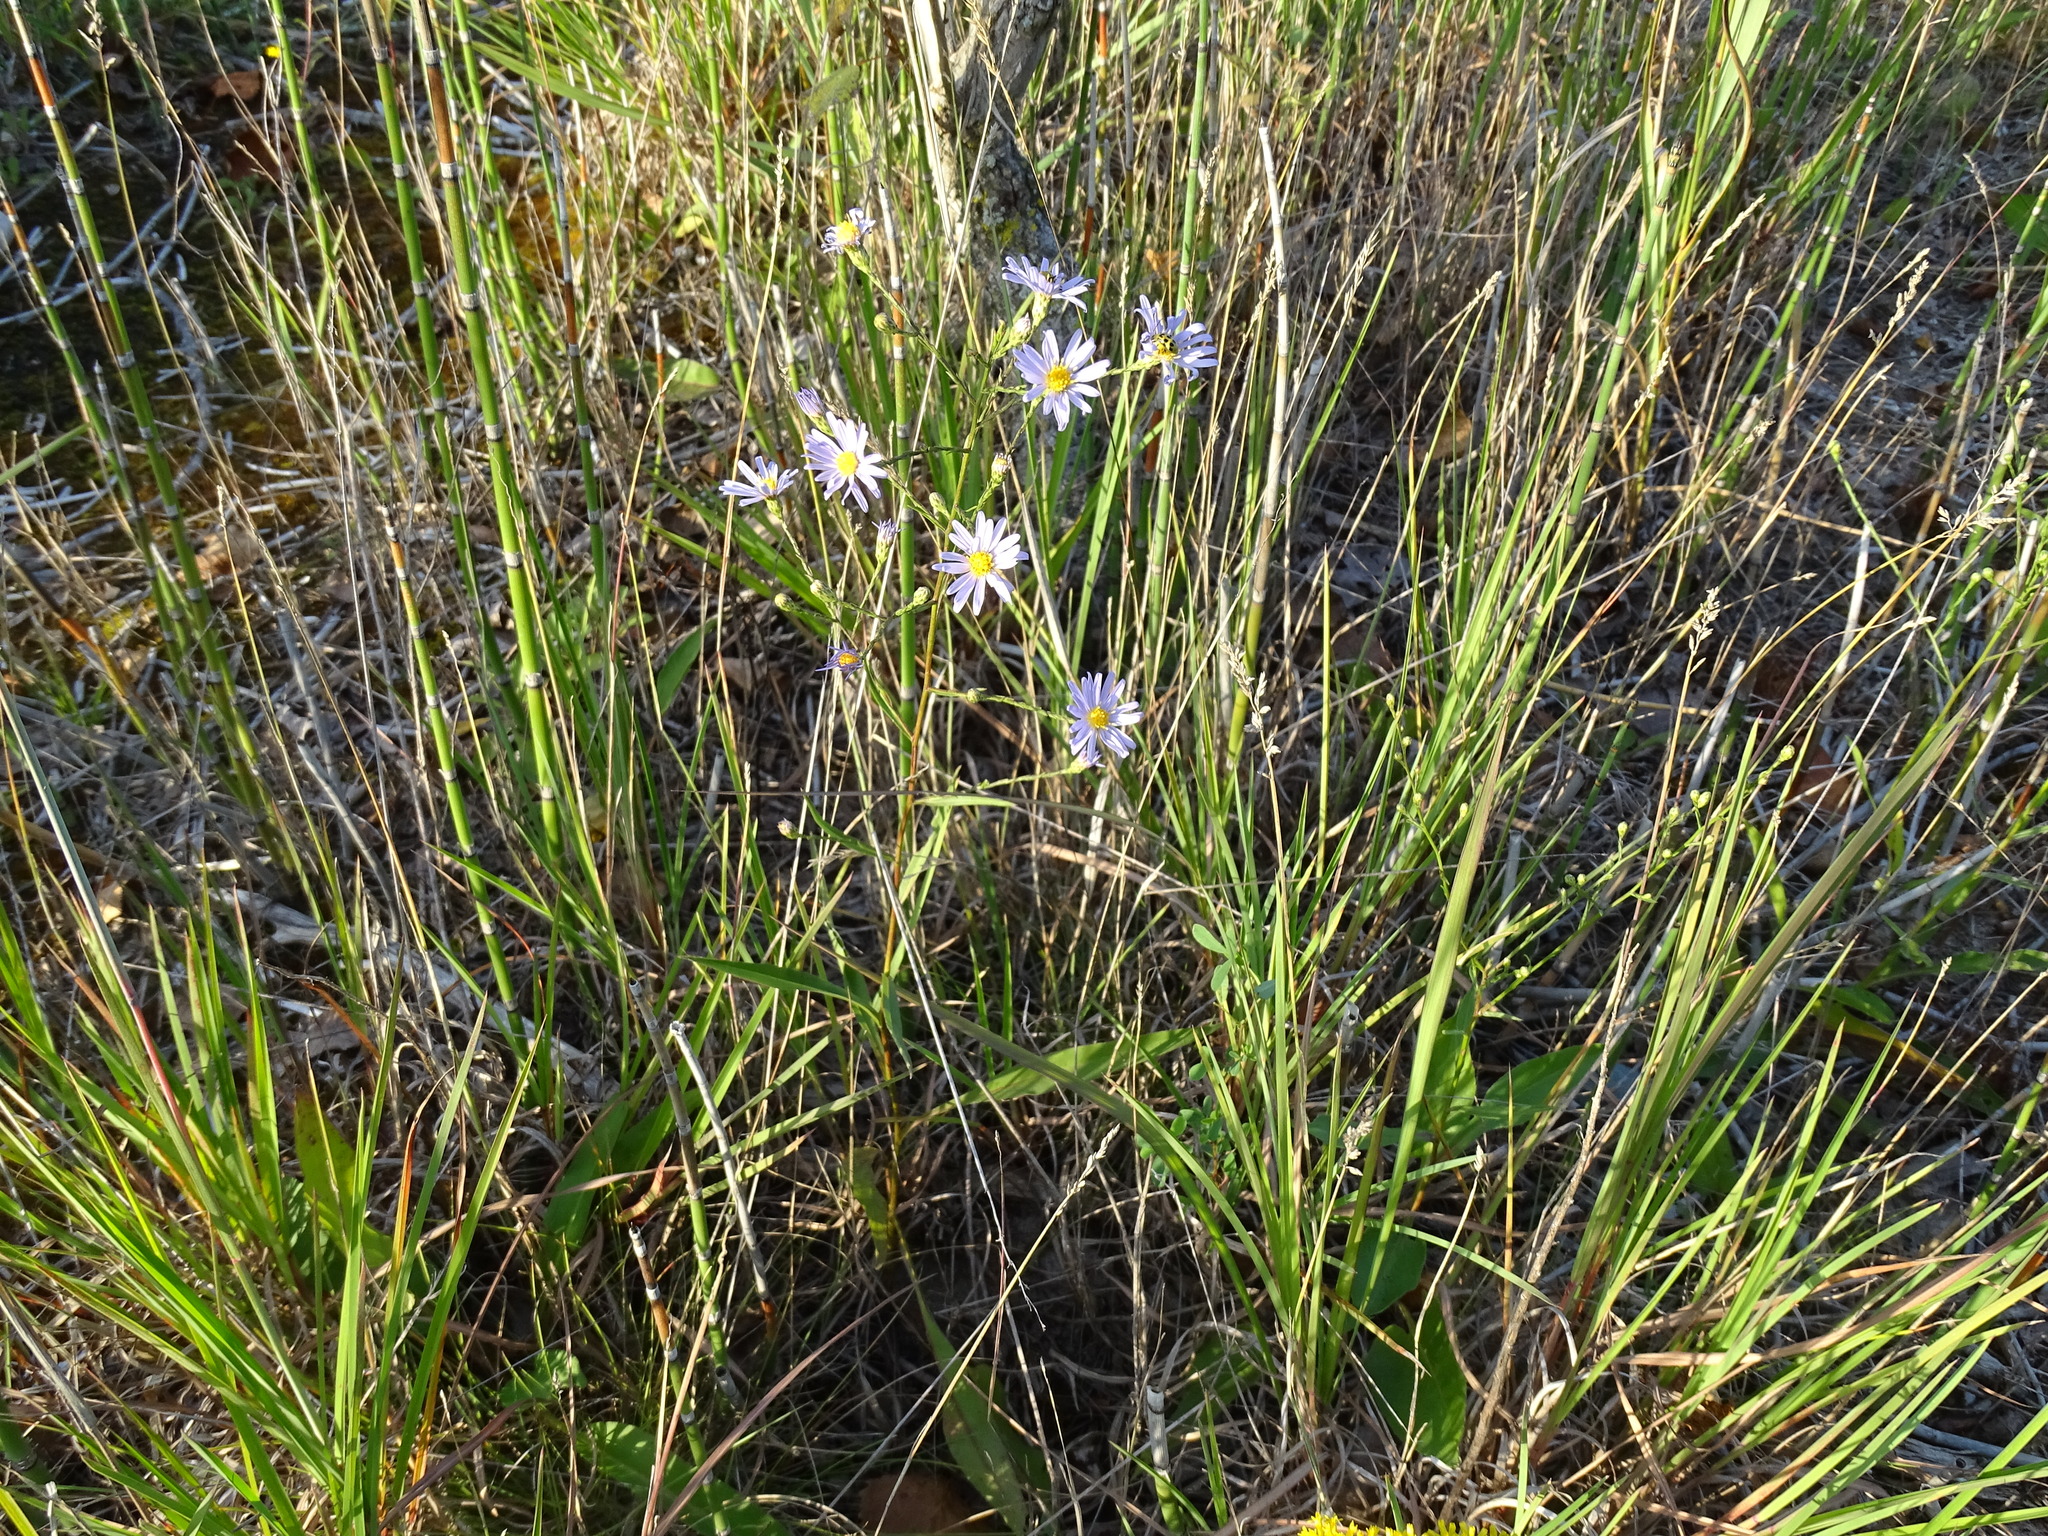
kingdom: Plantae
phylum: Tracheophyta
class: Magnoliopsida
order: Asterales
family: Asteraceae
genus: Symphyotrichum
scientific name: Symphyotrichum oolentangiense
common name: Azure aster
